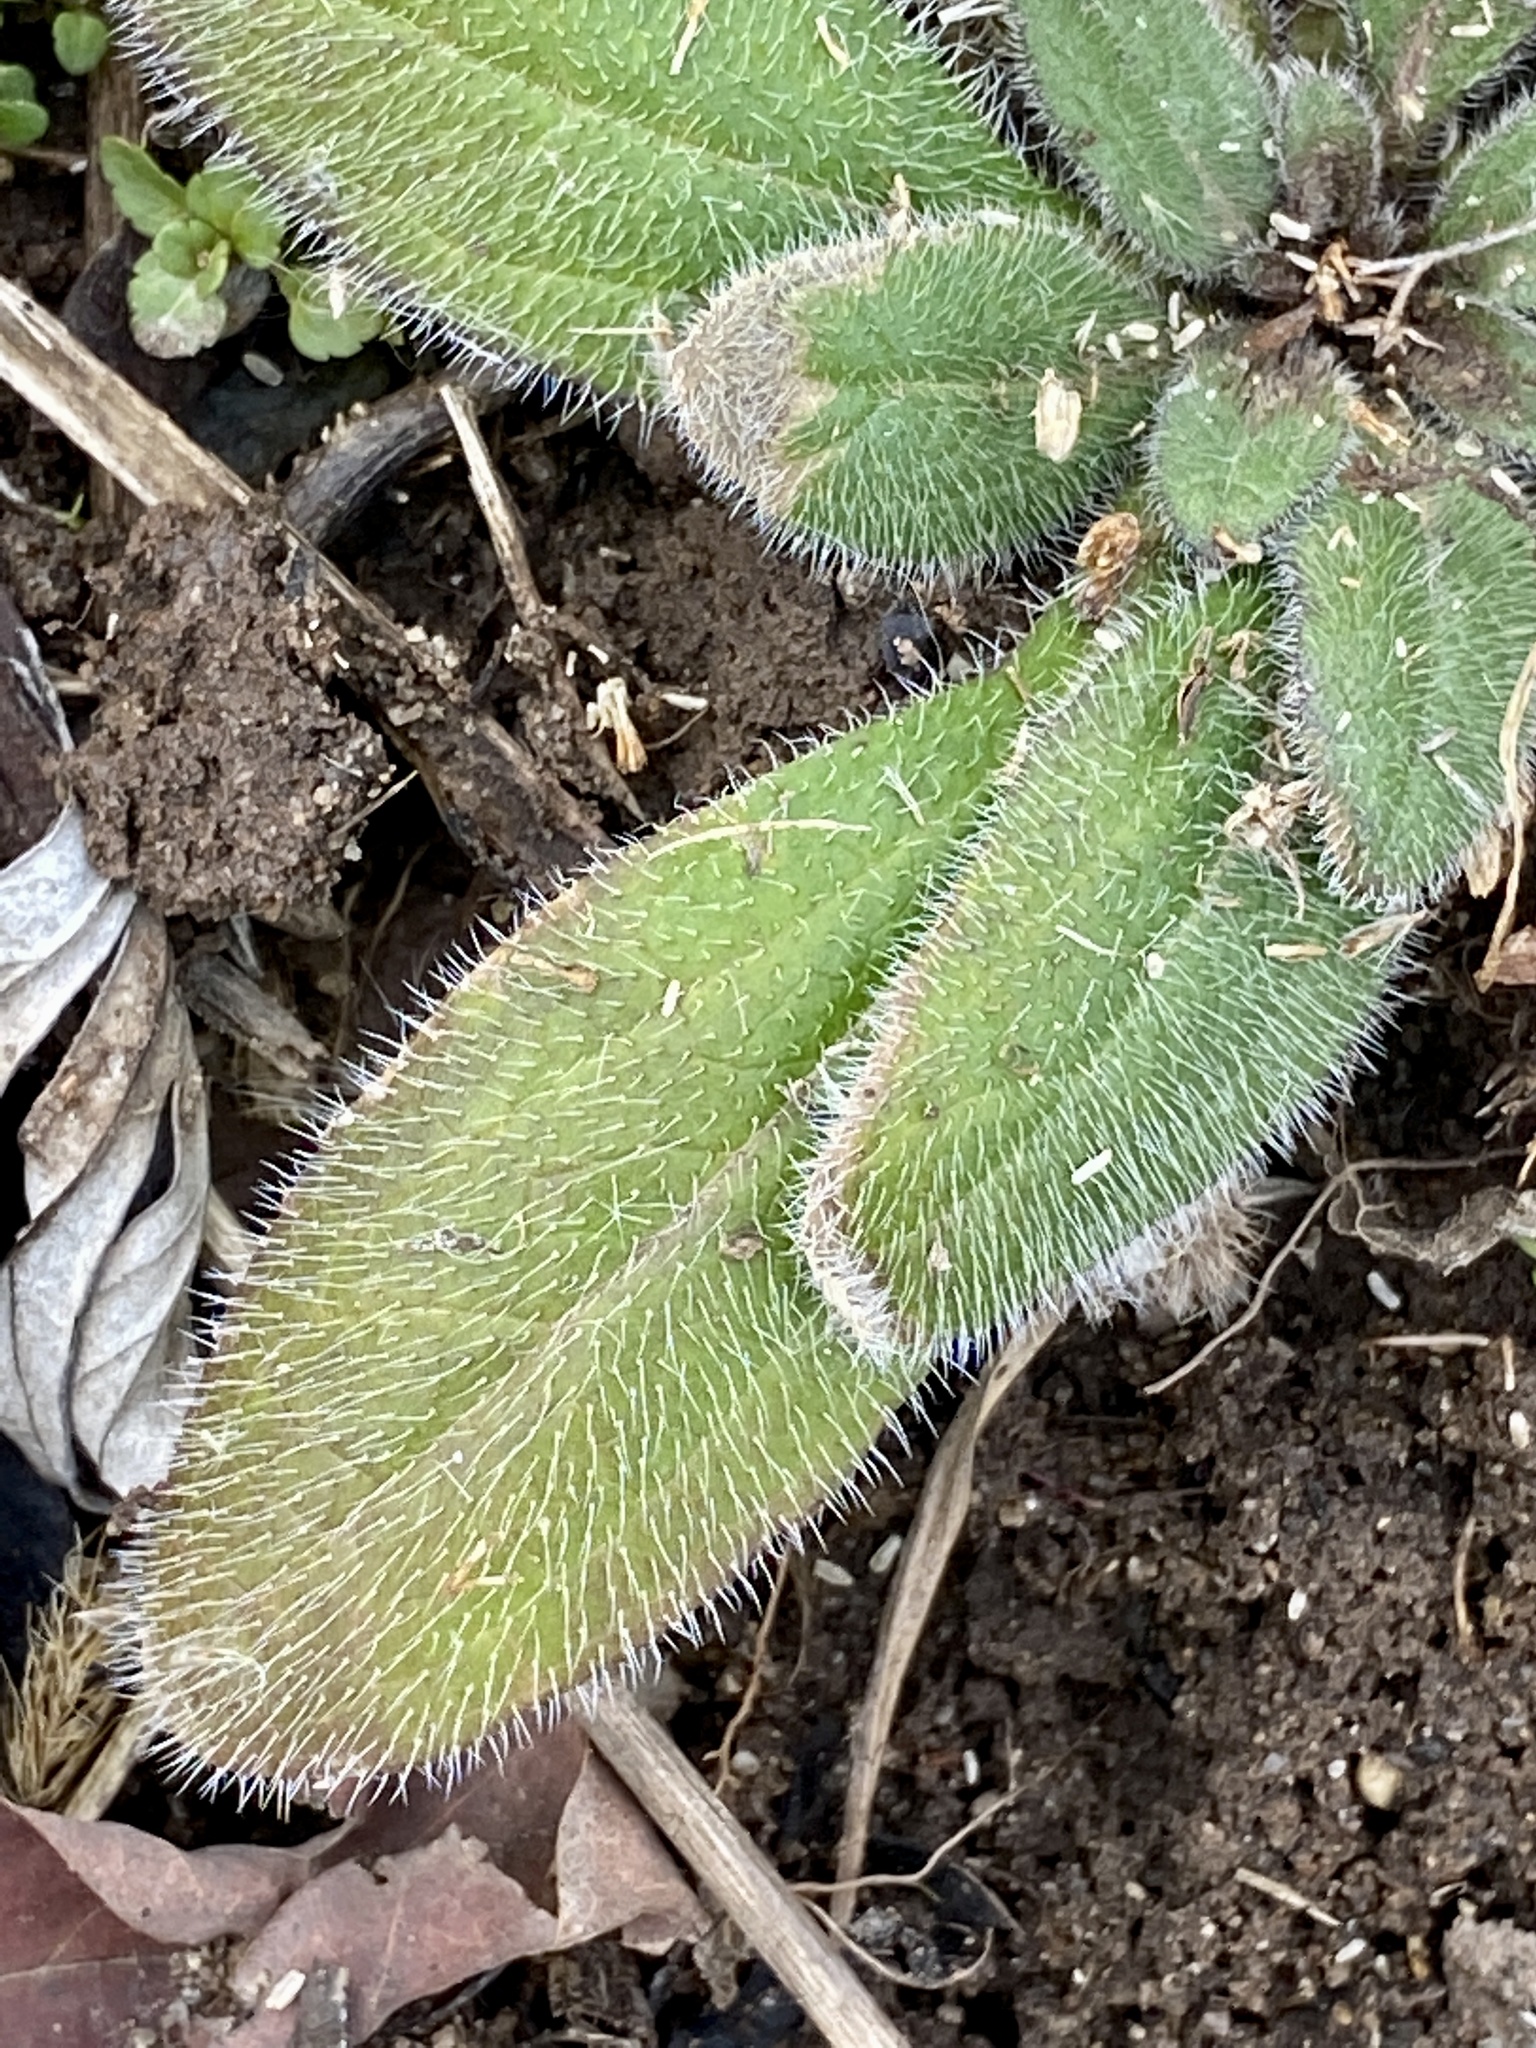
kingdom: Plantae
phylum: Tracheophyta
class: Magnoliopsida
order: Asterales
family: Asteraceae
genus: Rudbeckia
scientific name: Rudbeckia hirta
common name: Black-eyed-susan
